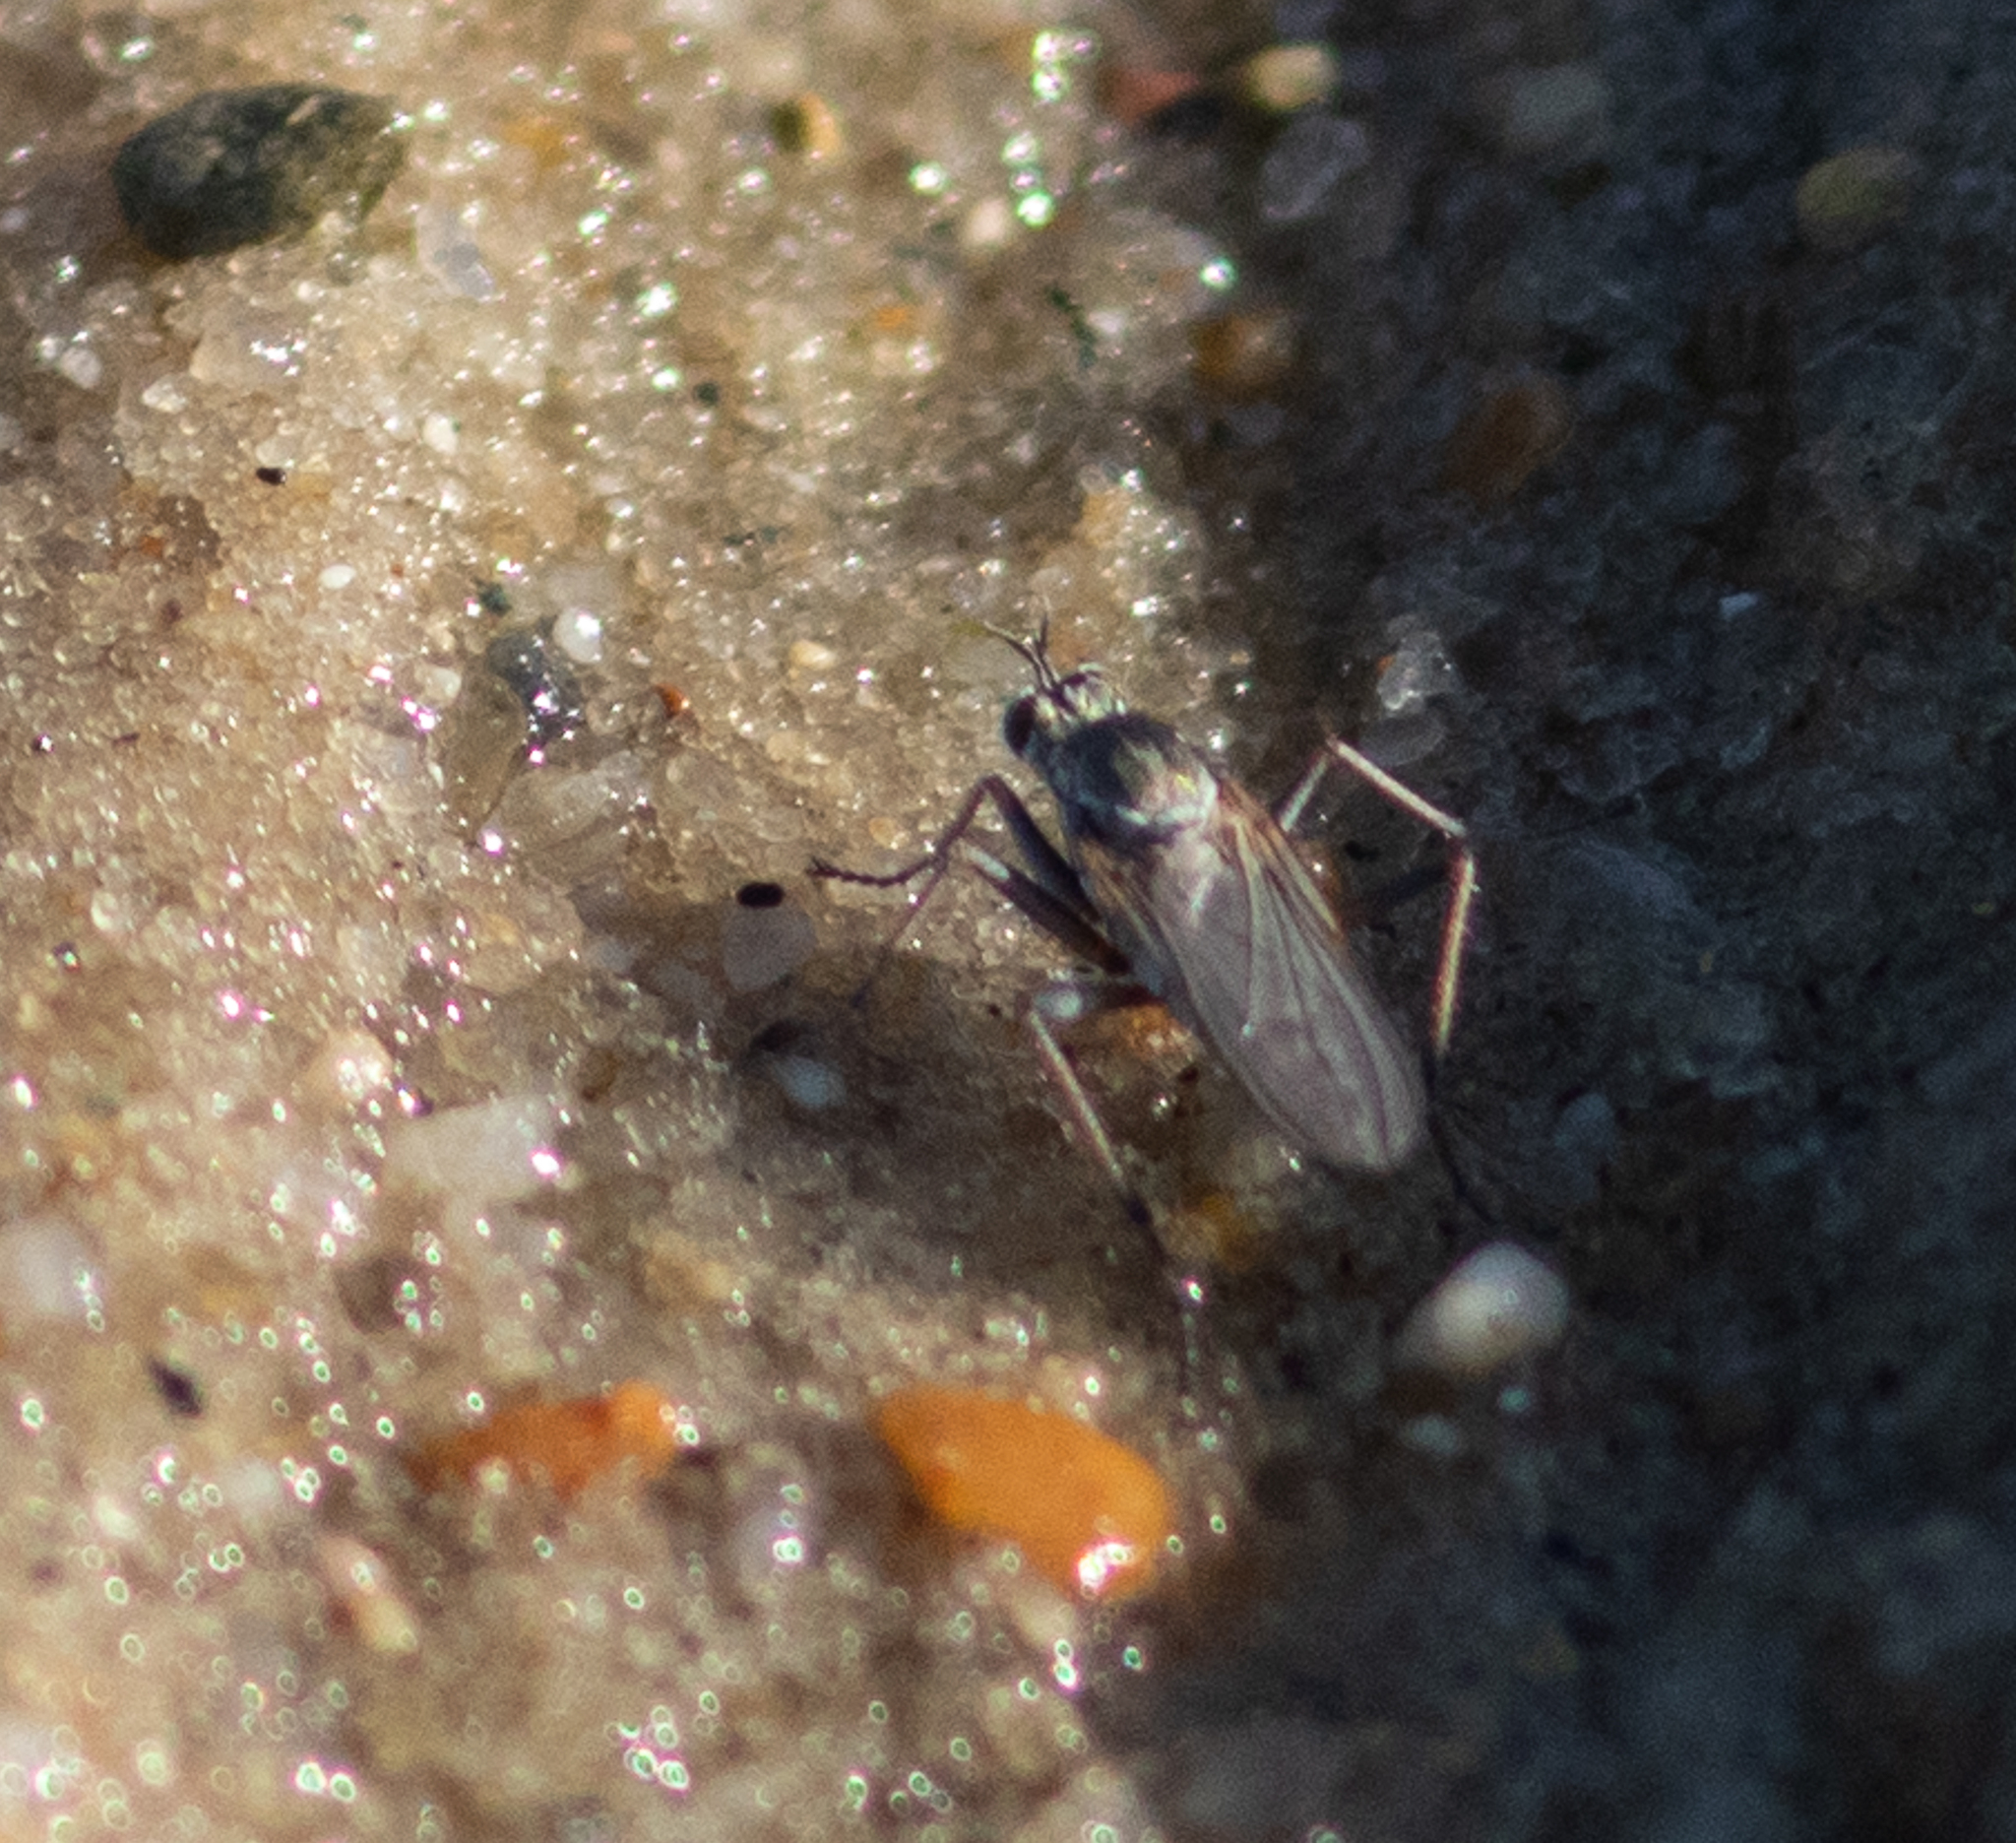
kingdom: Animalia
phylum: Arthropoda
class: Insecta
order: Diptera
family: Dolichopodidae
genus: Hypocharassus
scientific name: Hypocharassus pruinosus
